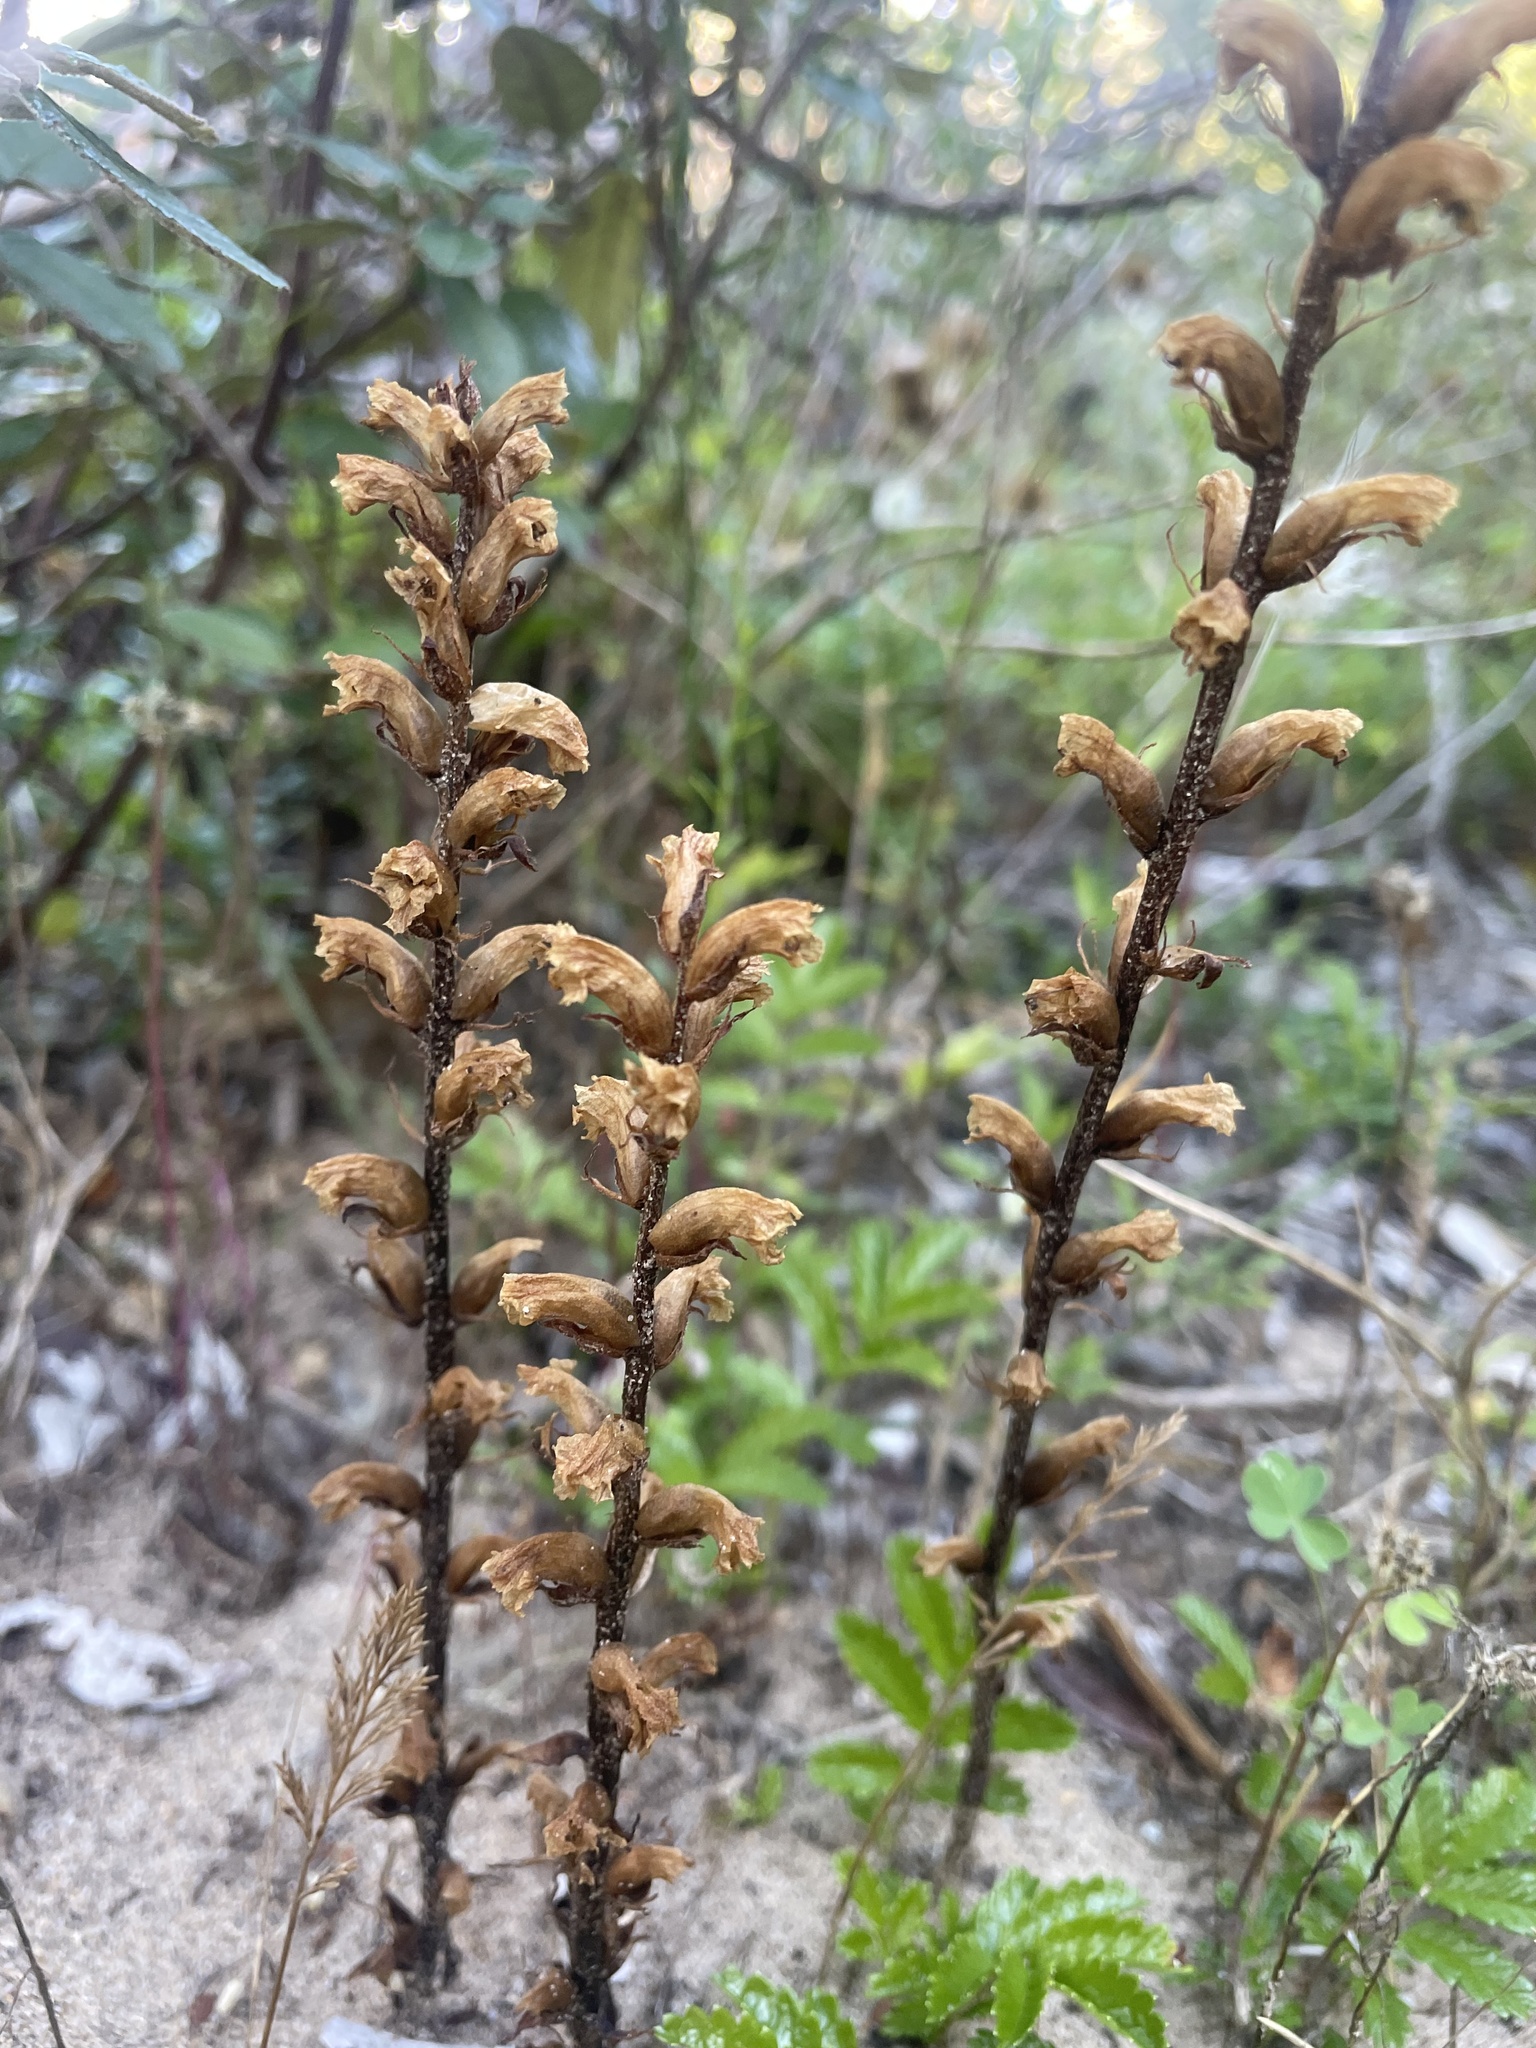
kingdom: Plantae
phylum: Tracheophyta
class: Magnoliopsida
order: Lamiales
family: Orobanchaceae
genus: Orobanche
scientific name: Orobanche minor
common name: Common broomrape
